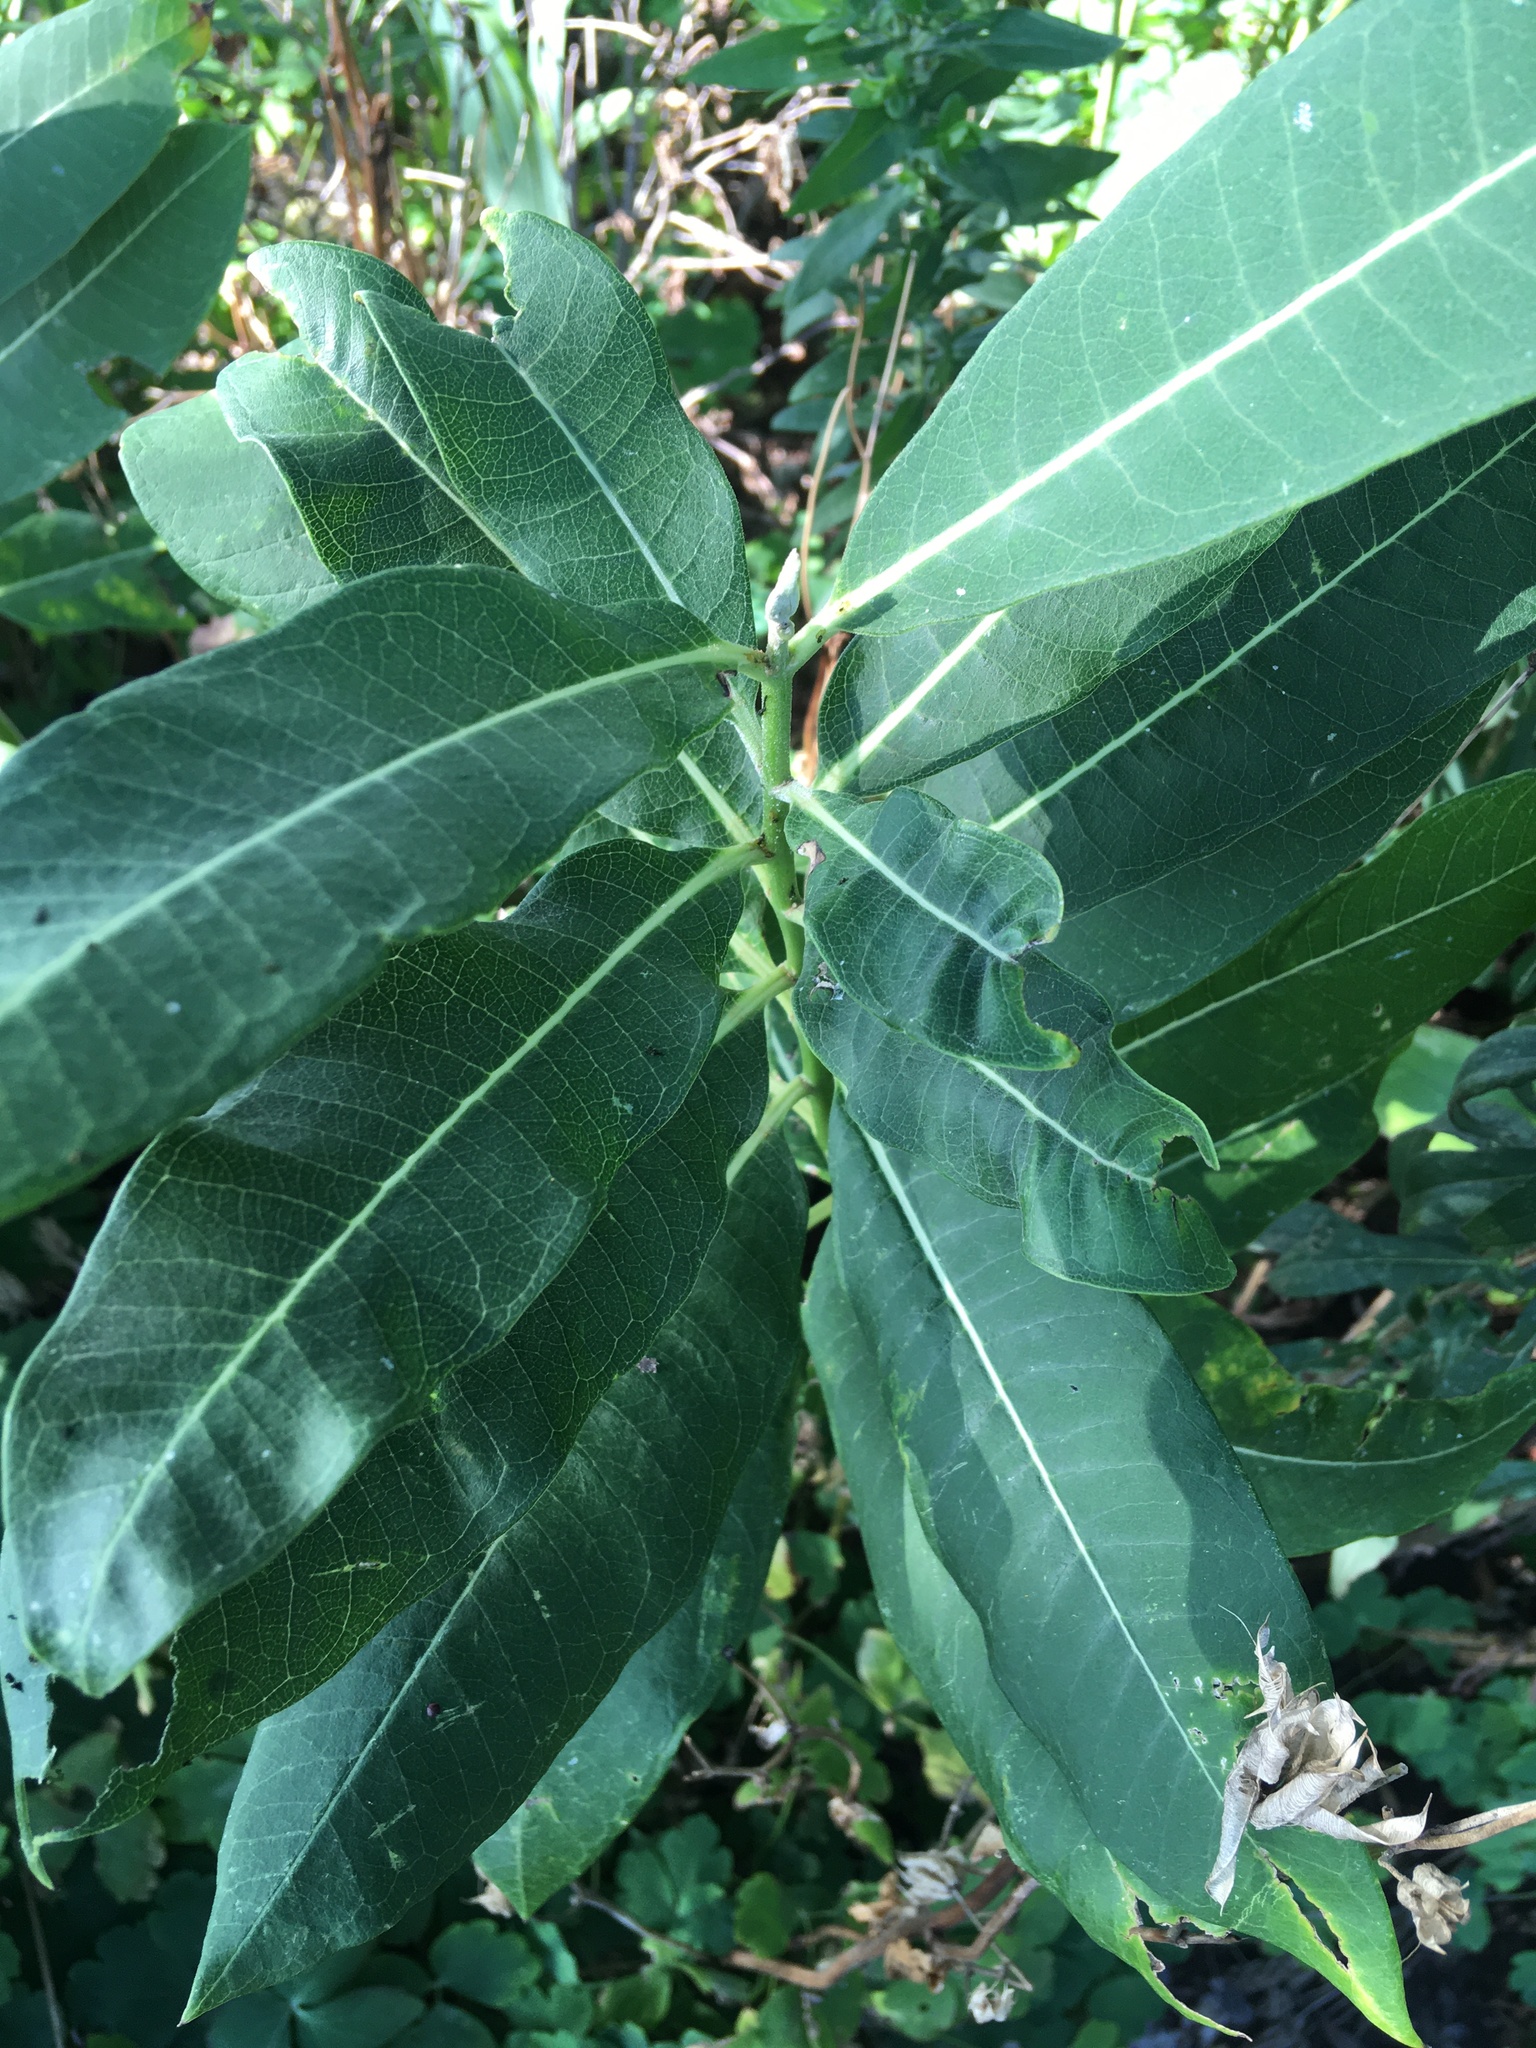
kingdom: Plantae
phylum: Tracheophyta
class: Magnoliopsida
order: Gentianales
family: Apocynaceae
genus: Asclepias
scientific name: Asclepias syriaca
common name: Common milkweed
